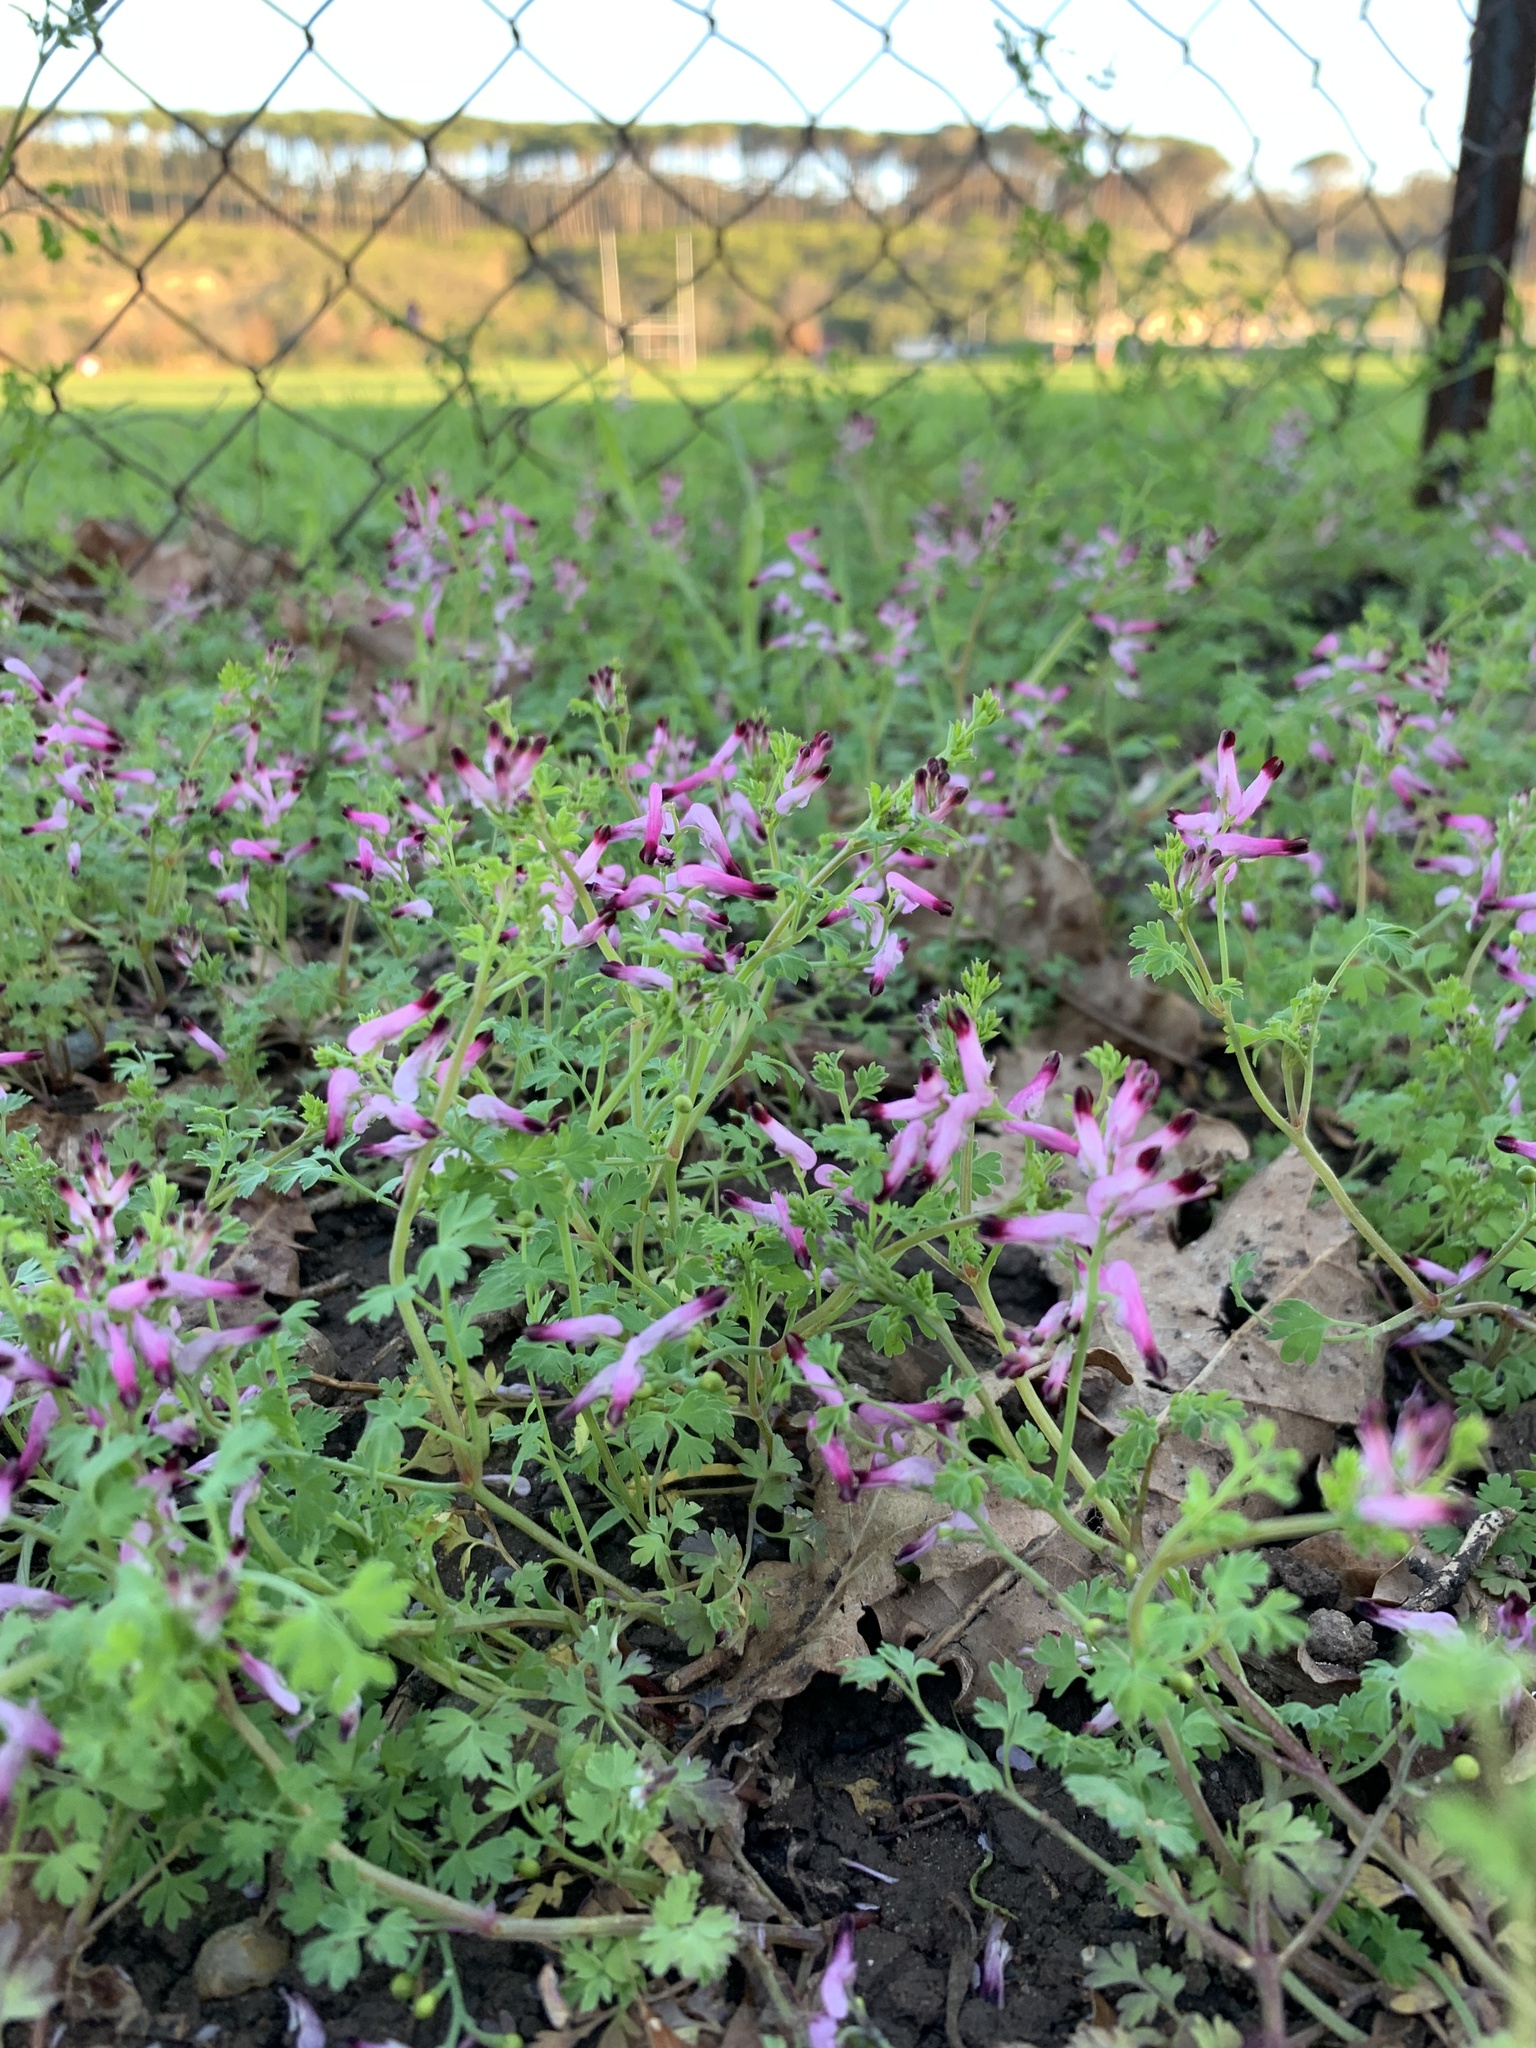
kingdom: Plantae
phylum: Tracheophyta
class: Magnoliopsida
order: Ranunculales
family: Papaveraceae
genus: Fumaria
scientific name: Fumaria muralis
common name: Common ramping-fumitory
